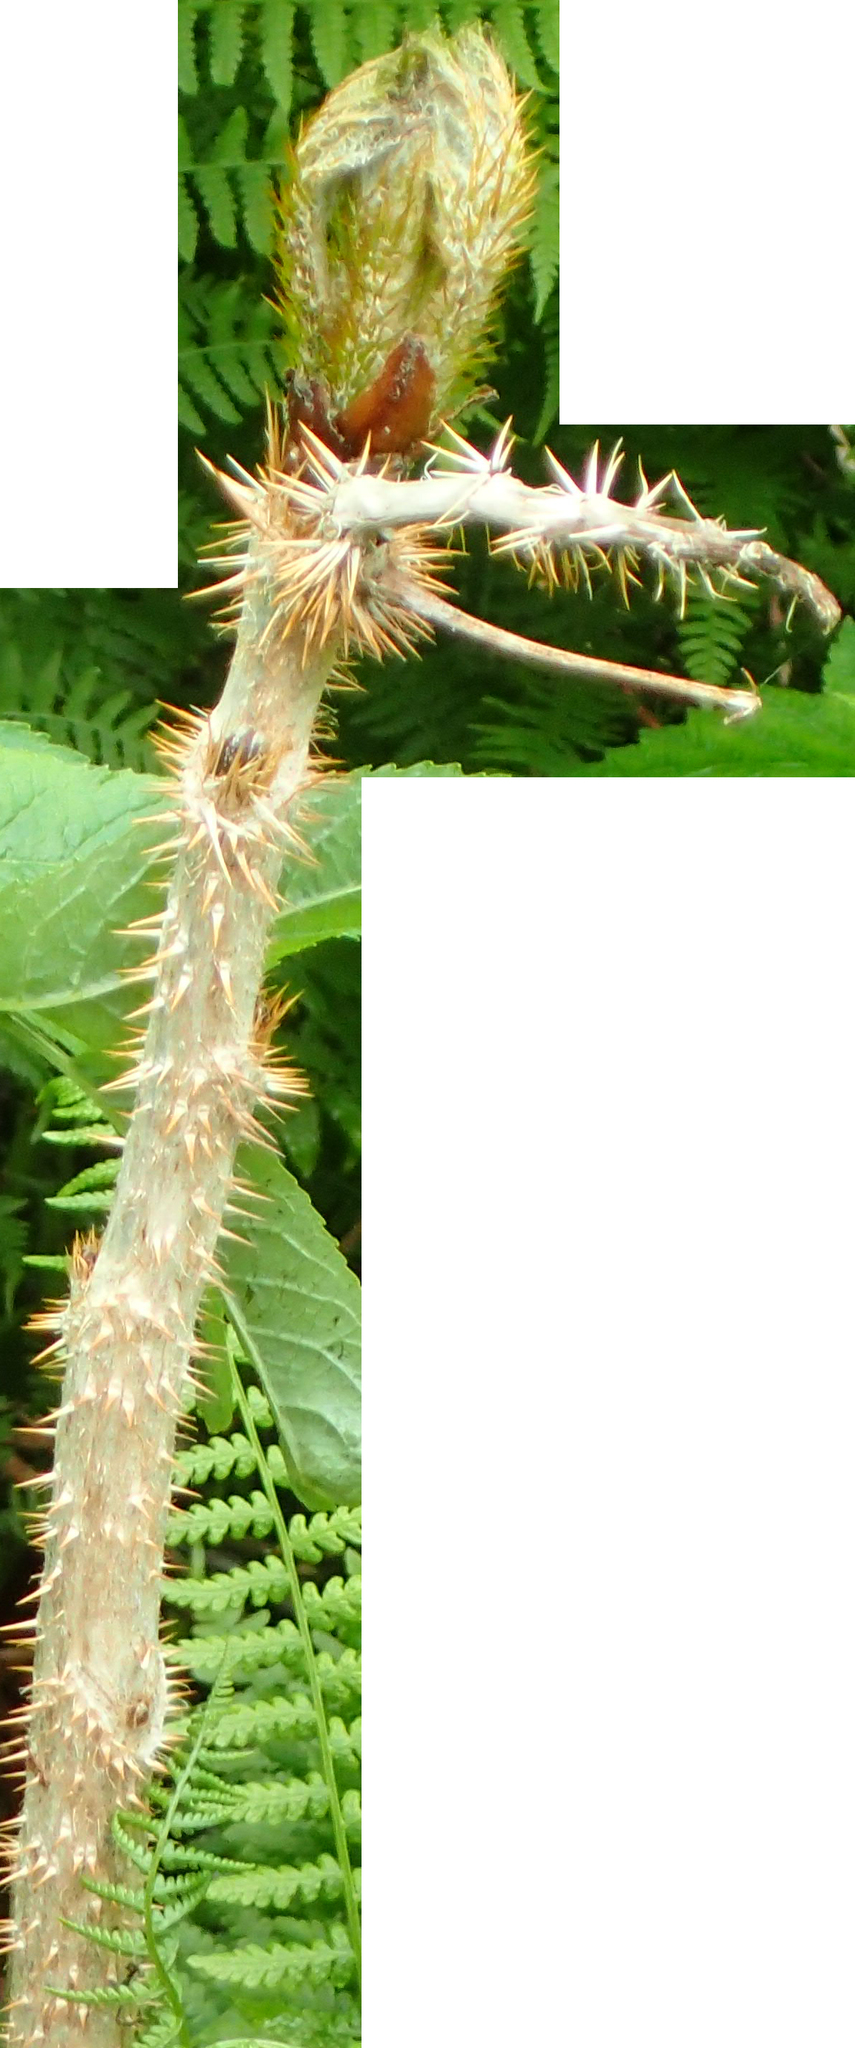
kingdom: Plantae
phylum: Tracheophyta
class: Magnoliopsida
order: Apiales
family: Araliaceae
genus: Oplopanax
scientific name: Oplopanax horridus
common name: Devil's walking-stick
